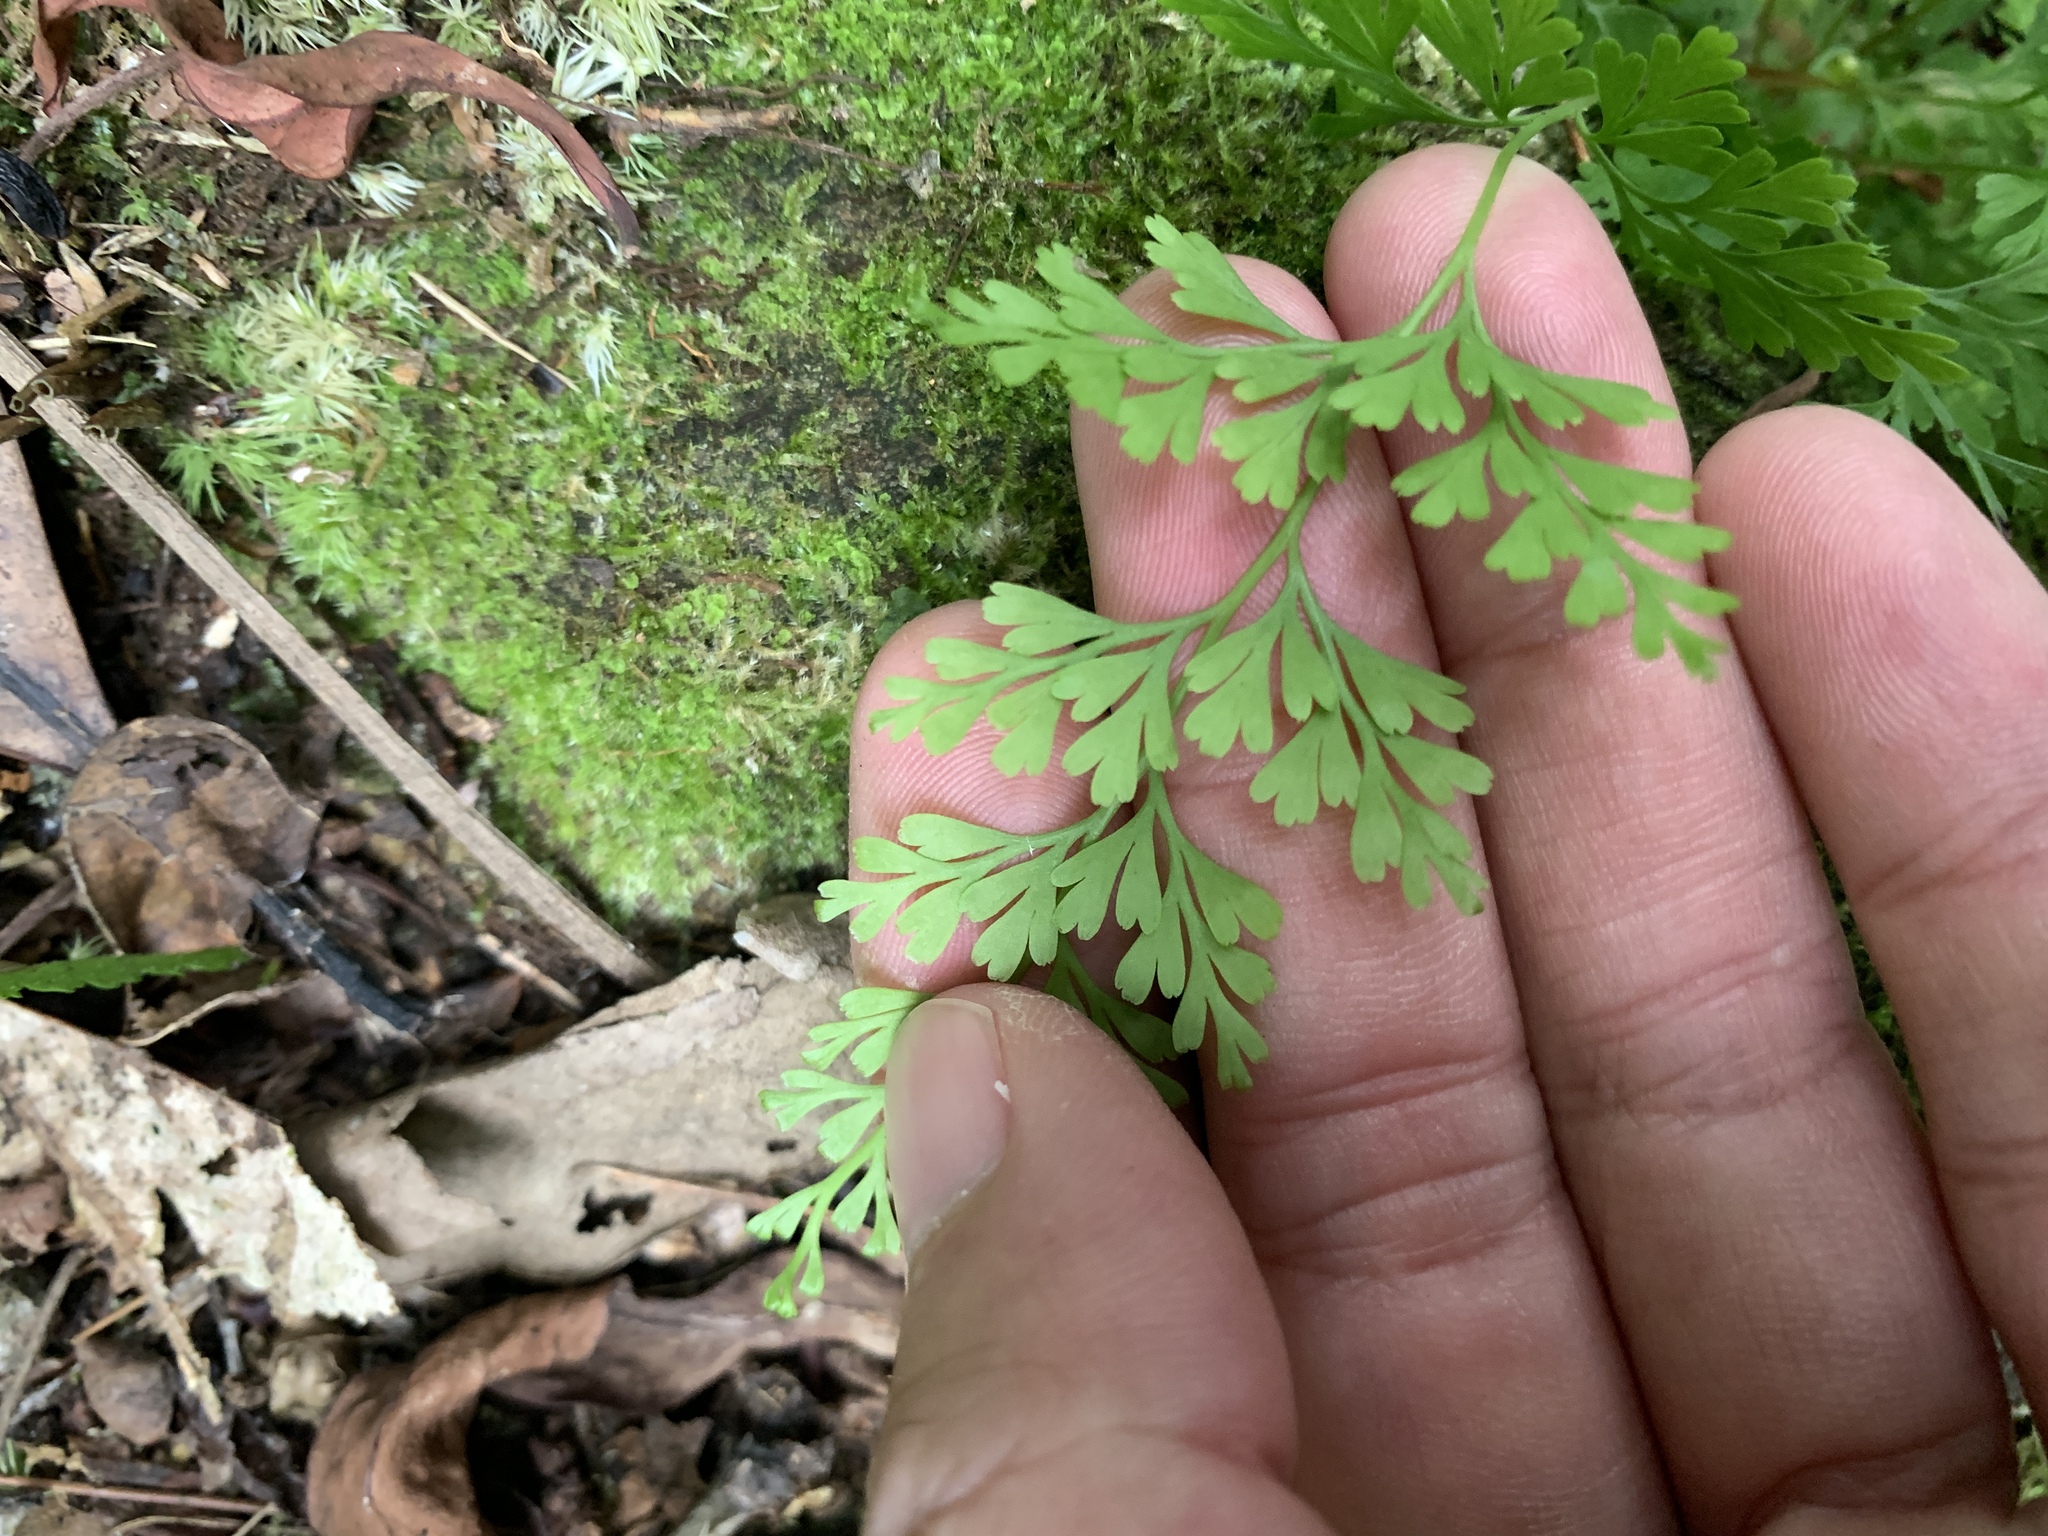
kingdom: Plantae
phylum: Tracheophyta
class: Polypodiopsida
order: Polypodiales
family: Lindsaeaceae
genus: Odontosoria
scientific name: Odontosoria chinensis
